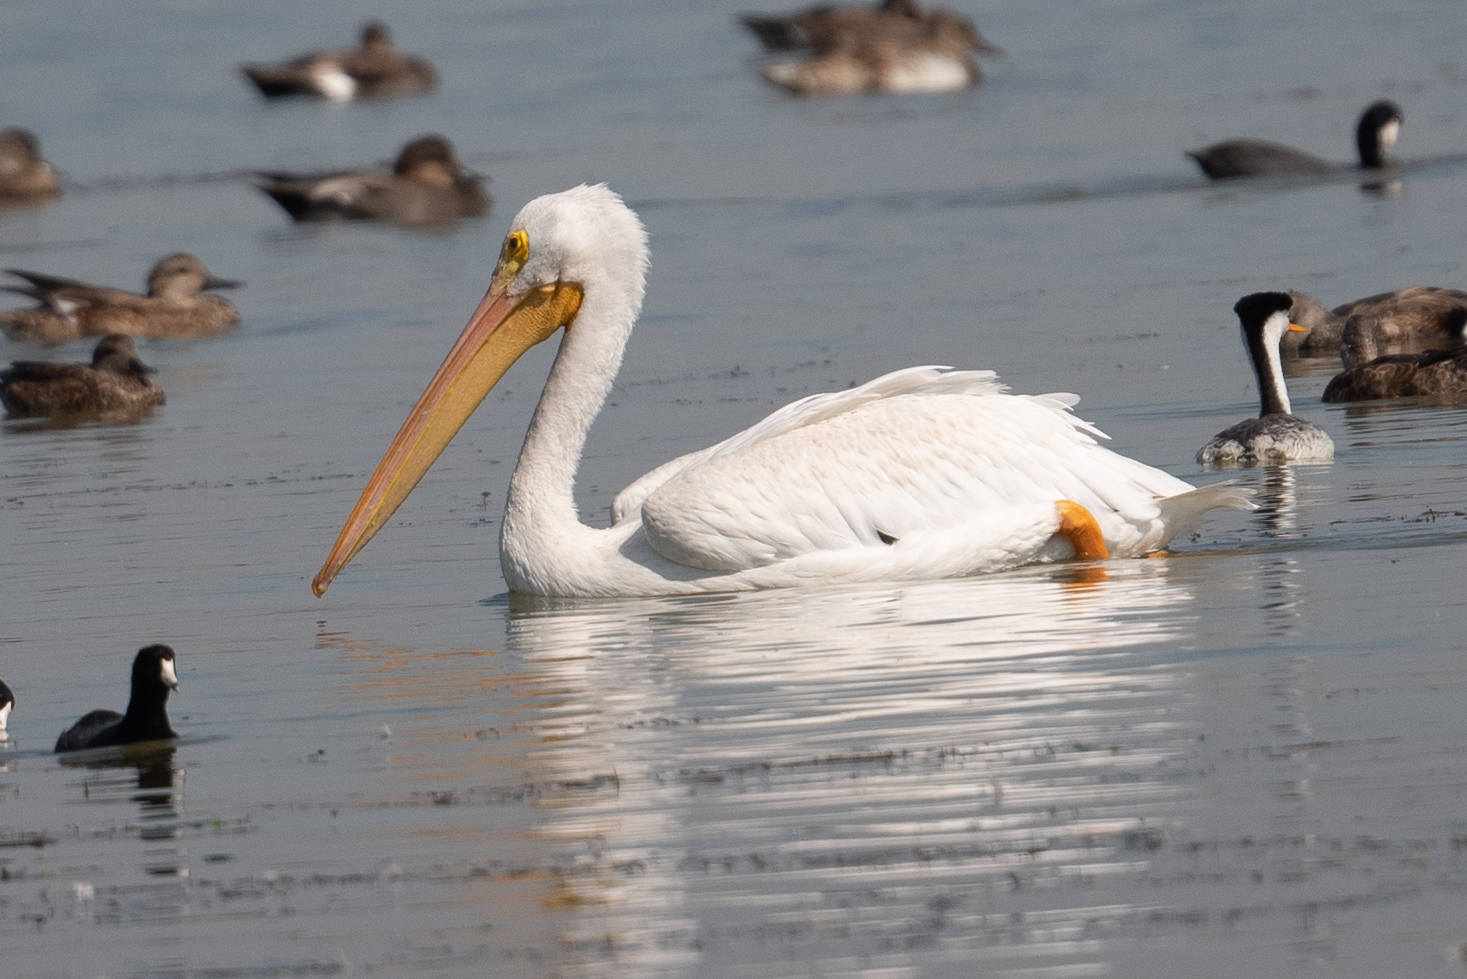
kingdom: Animalia
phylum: Chordata
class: Aves
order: Pelecaniformes
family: Pelecanidae
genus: Pelecanus
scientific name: Pelecanus erythrorhynchos
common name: American white pelican
